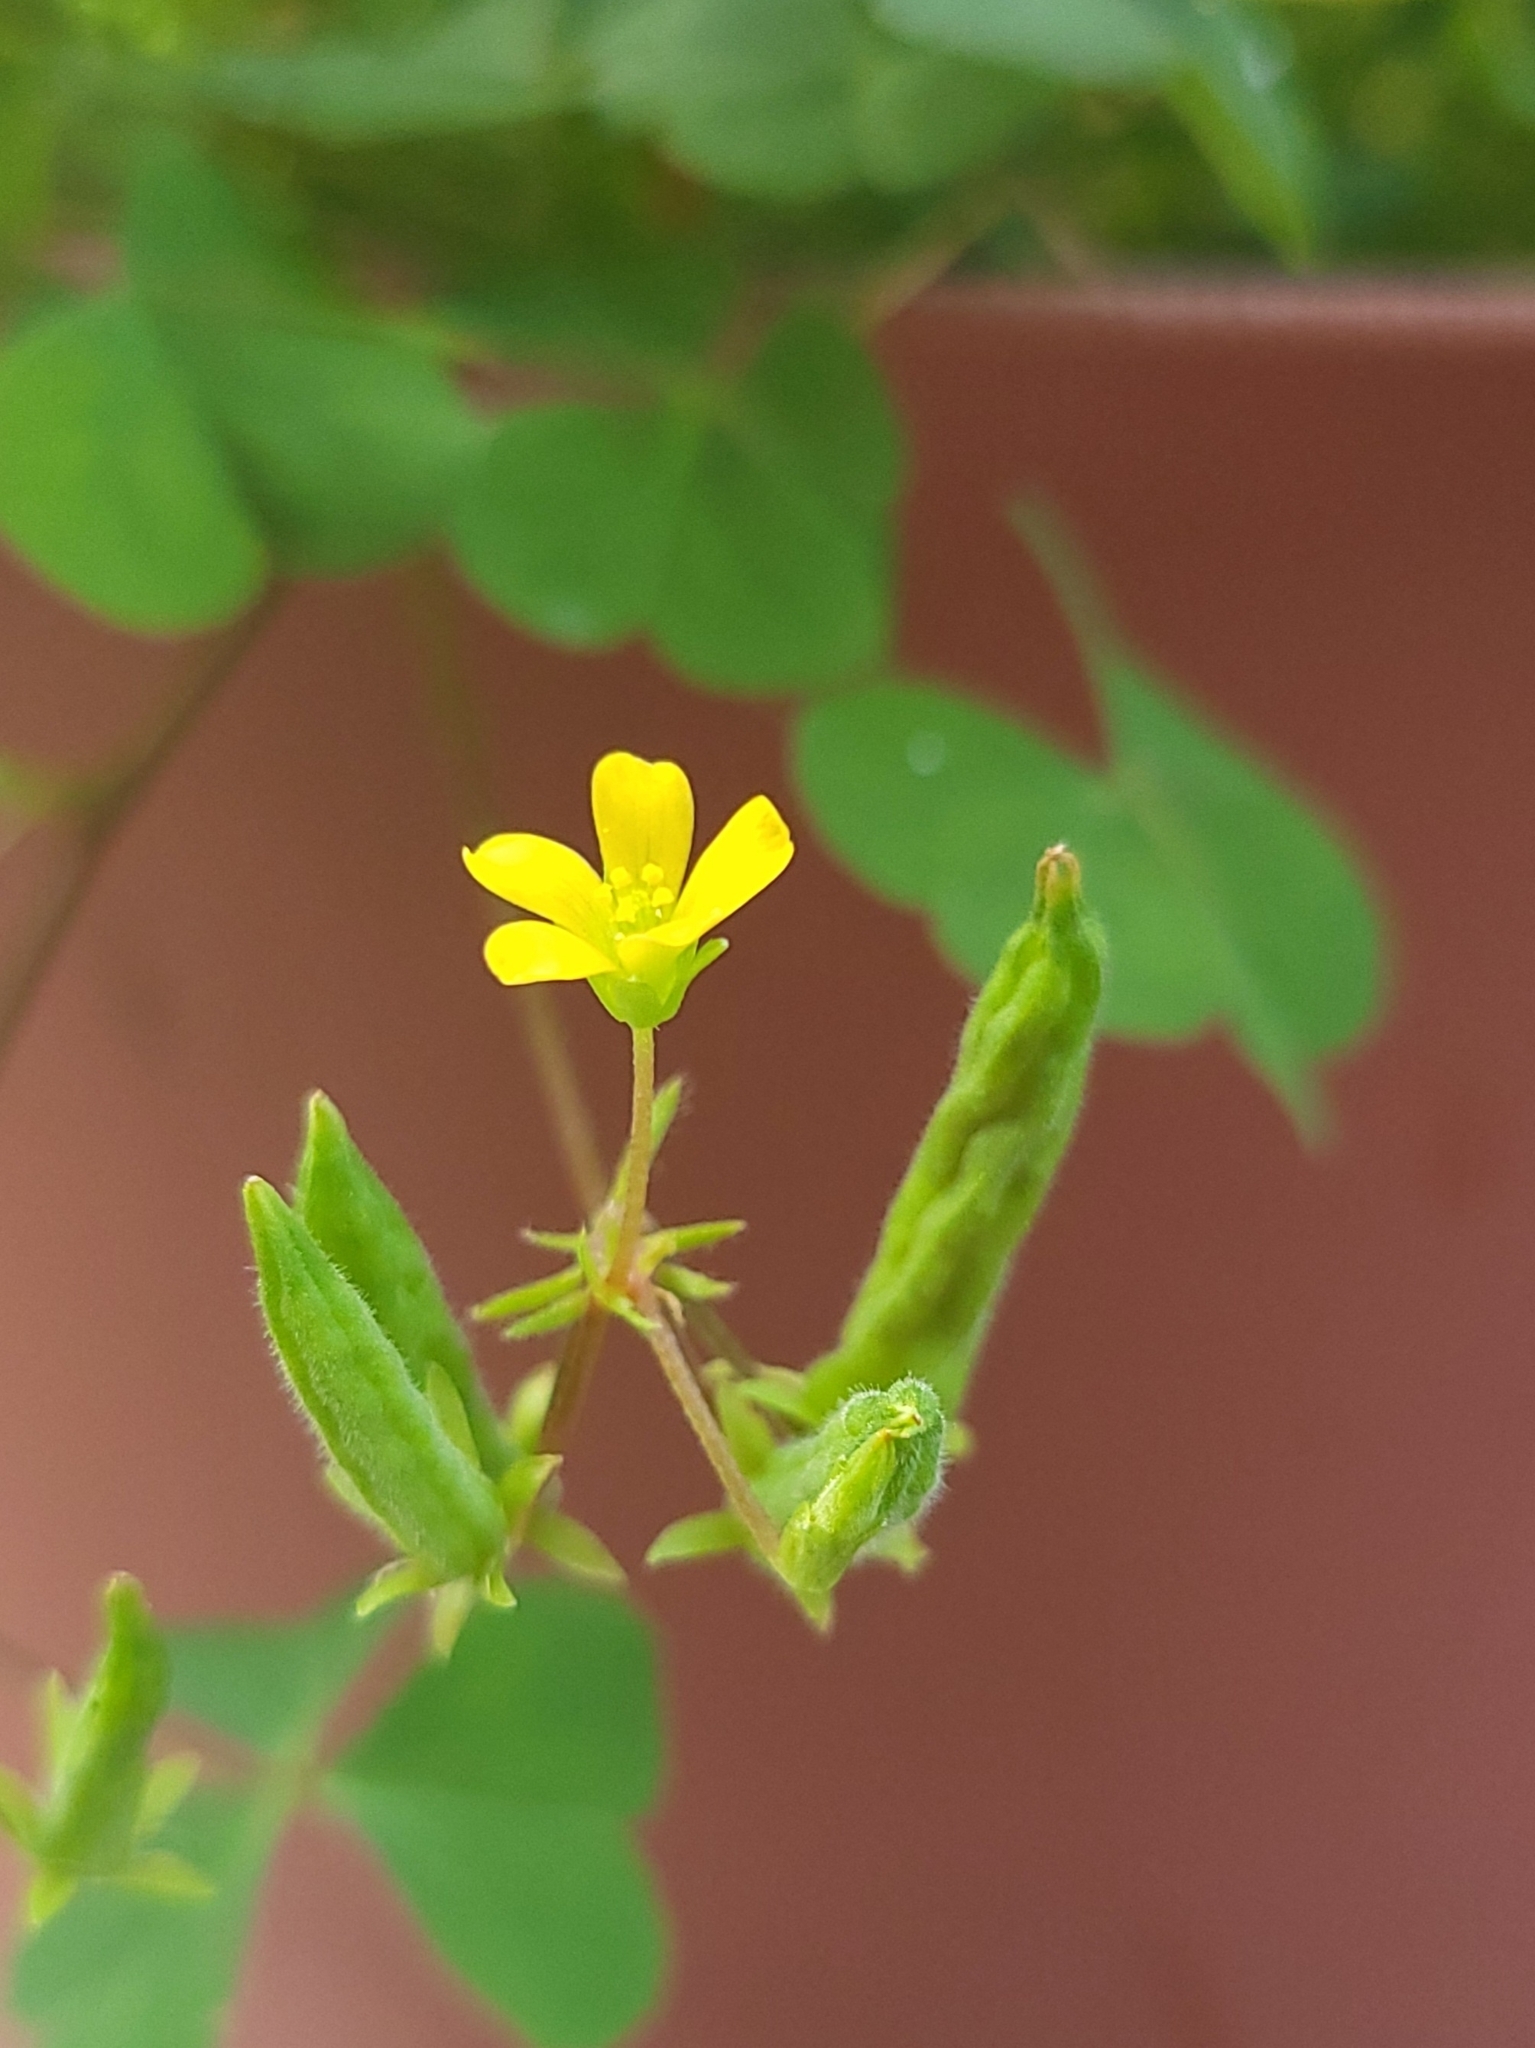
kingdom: Plantae
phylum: Tracheophyta
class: Magnoliopsida
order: Oxalidales
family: Oxalidaceae
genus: Oxalis
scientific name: Oxalis corniculata
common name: Procumbent yellow-sorrel
